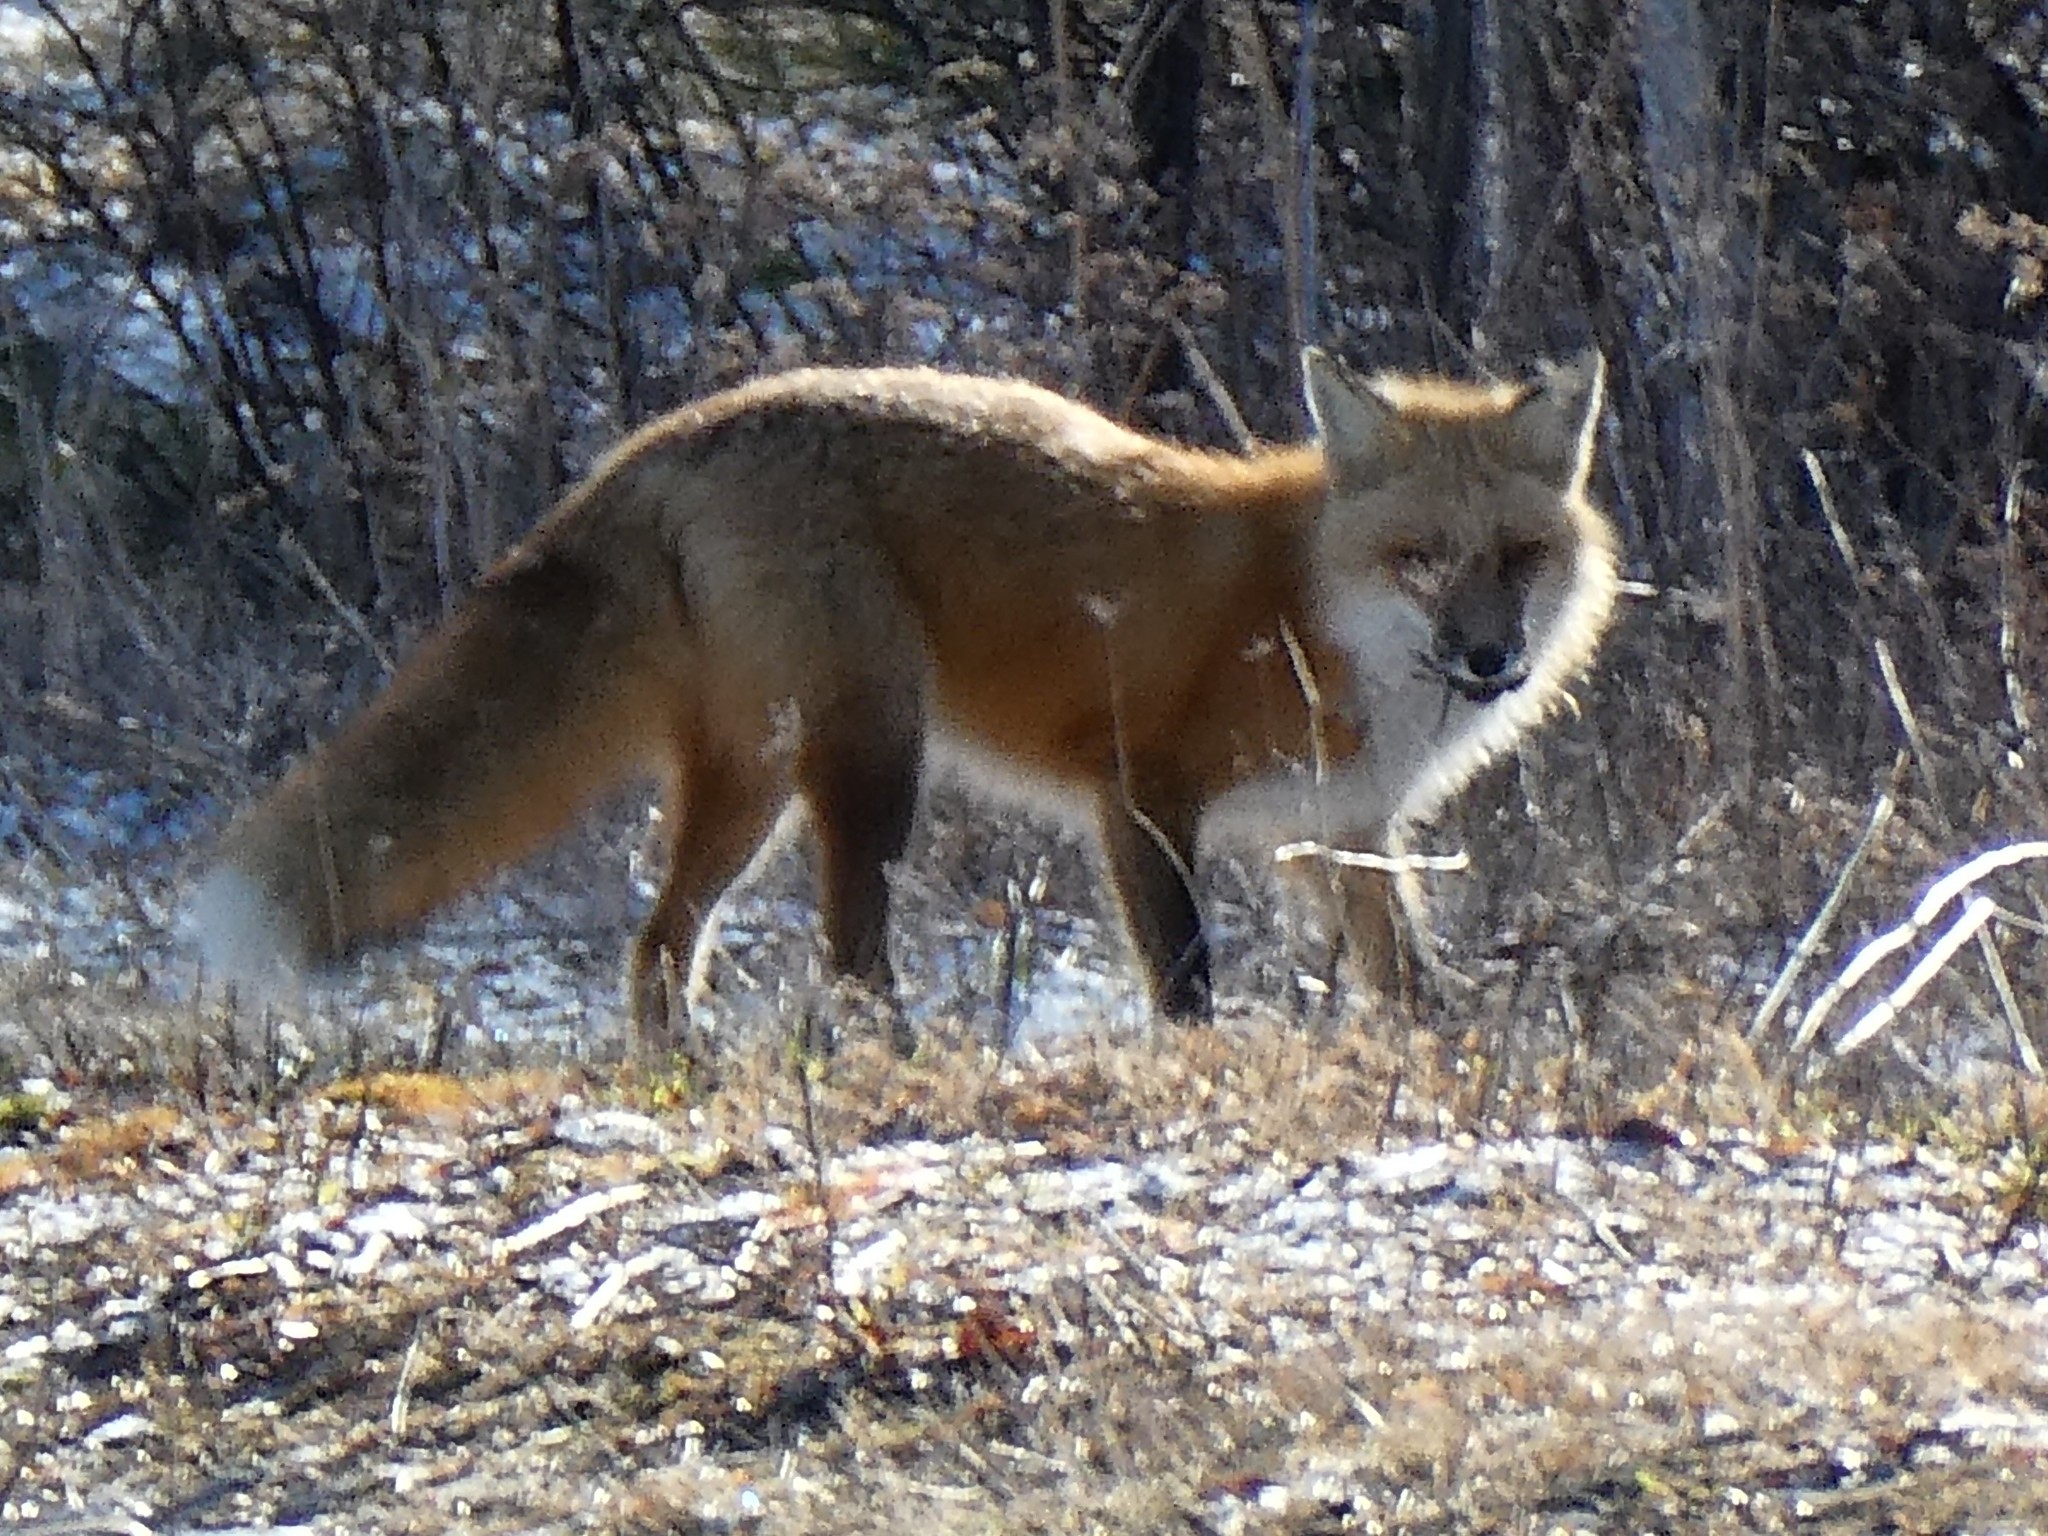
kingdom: Animalia
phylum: Chordata
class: Mammalia
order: Carnivora
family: Canidae
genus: Vulpes
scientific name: Vulpes vulpes
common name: Red fox
